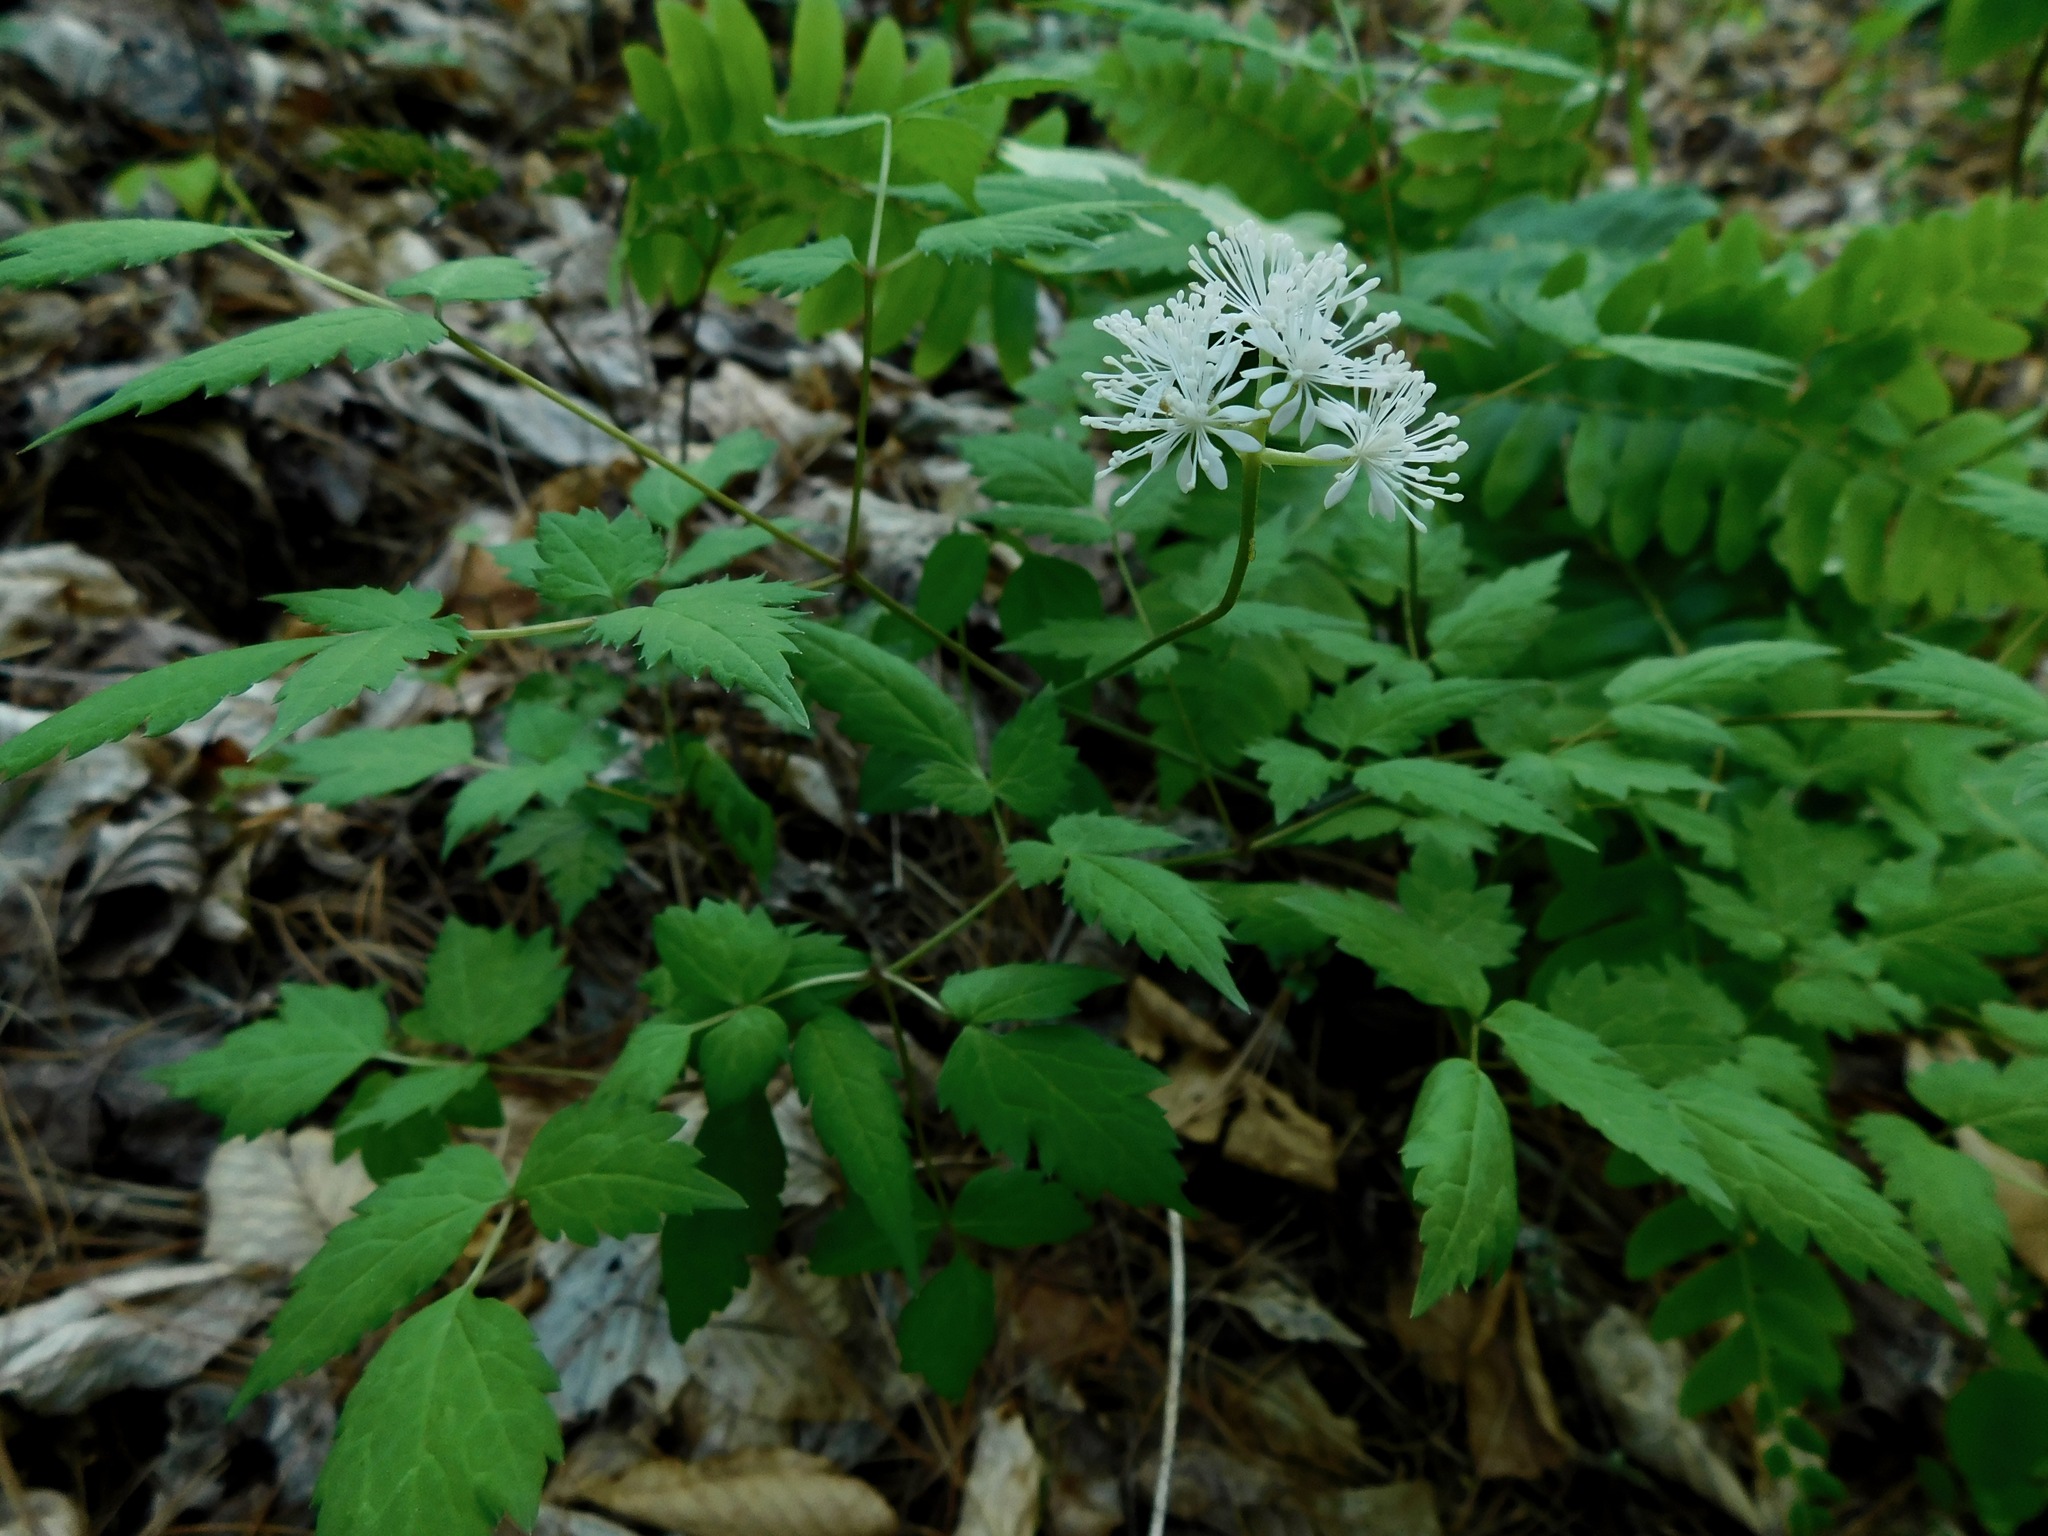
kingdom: Plantae
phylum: Tracheophyta
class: Magnoliopsida
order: Ranunculales
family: Ranunculaceae
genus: Actaea
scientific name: Actaea pachypoda
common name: Doll's-eyes
